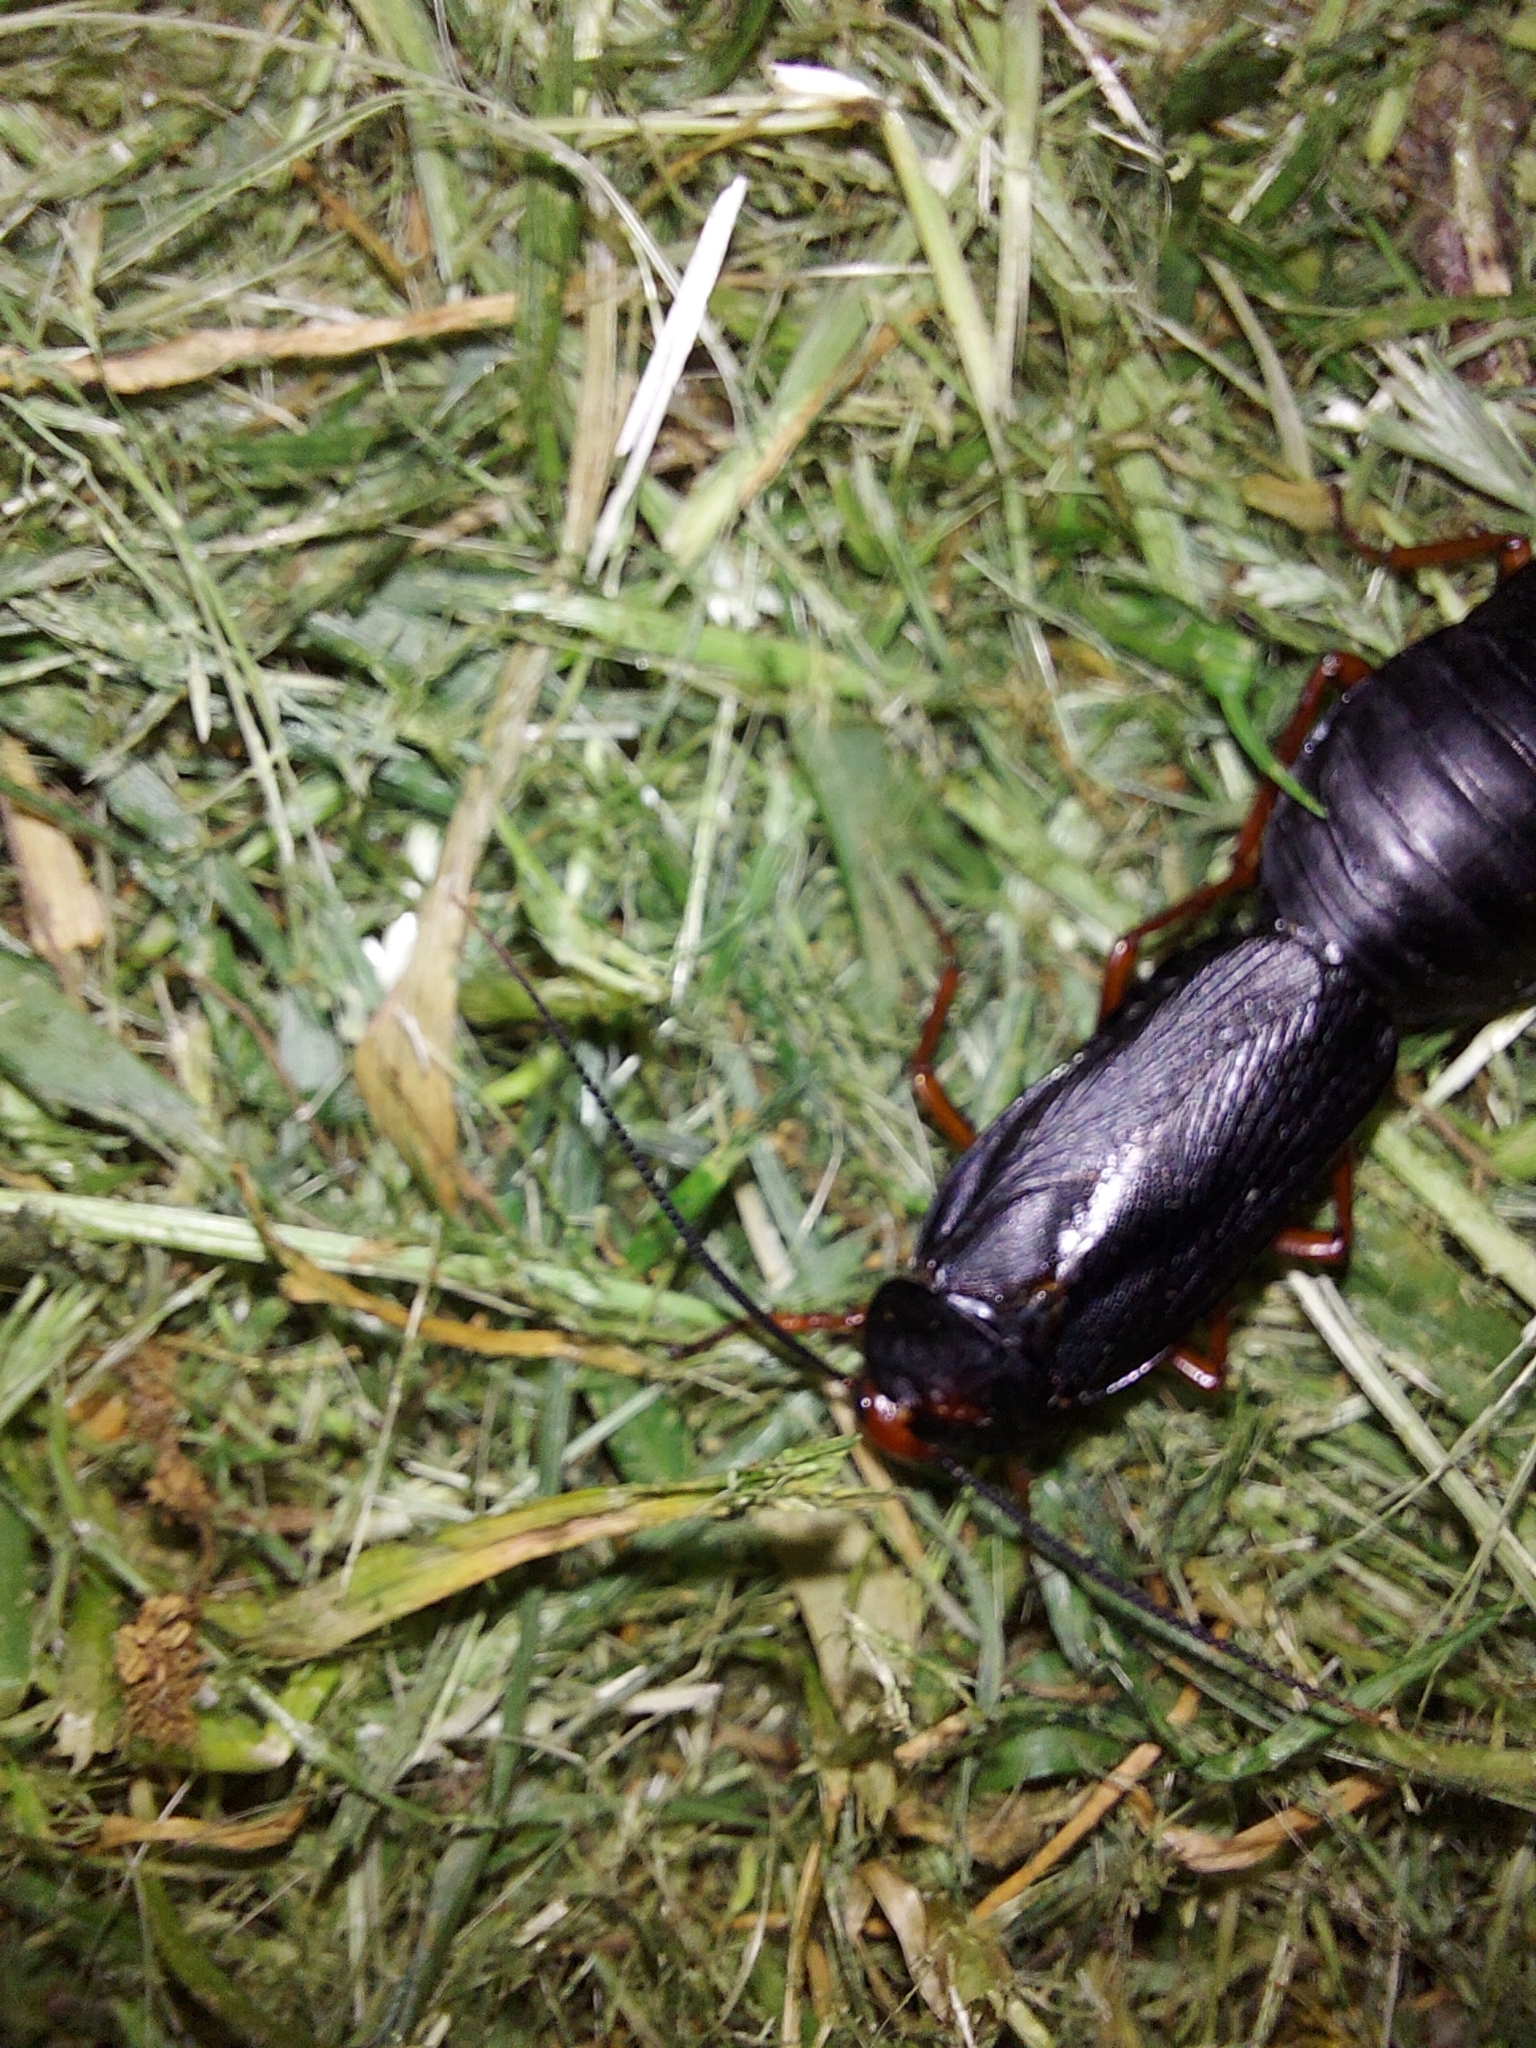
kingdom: Animalia
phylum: Arthropoda
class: Insecta
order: Blattodea
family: Blattidae
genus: Deropeltis
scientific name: Deropeltis erythrocephala
